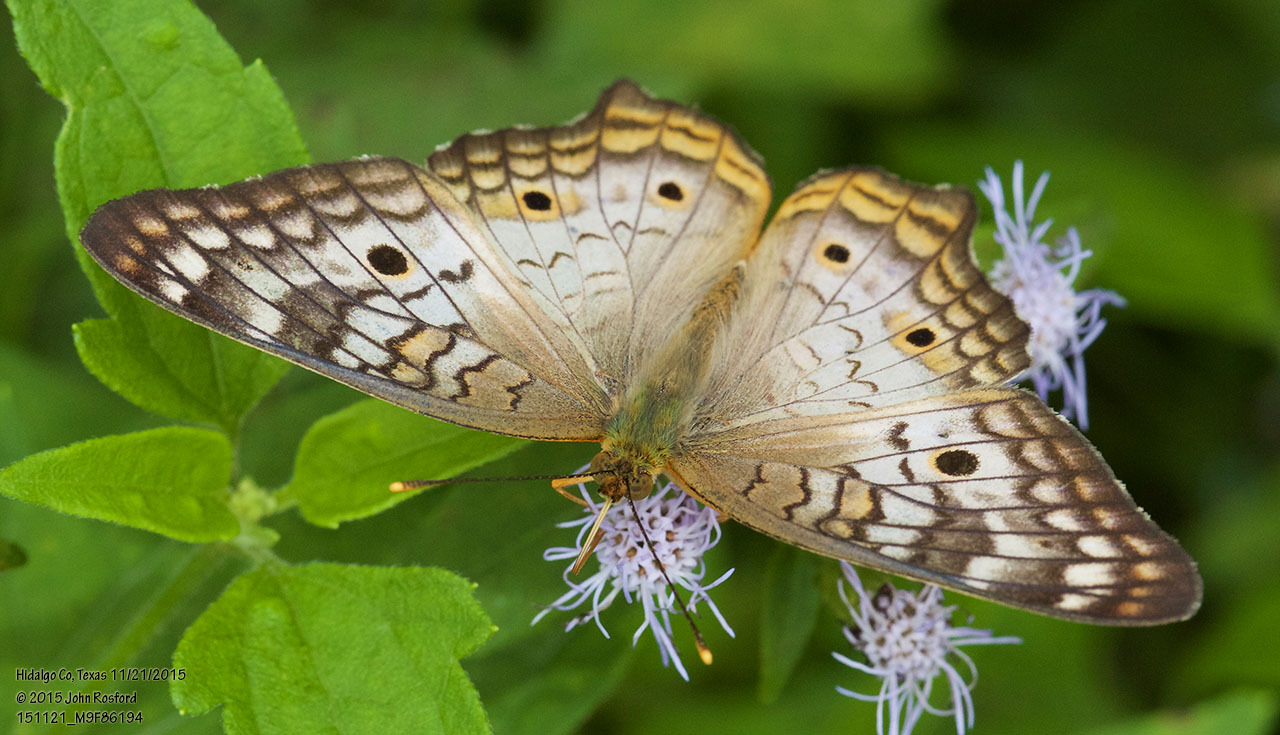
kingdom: Animalia
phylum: Arthropoda
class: Insecta
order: Lepidoptera
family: Nymphalidae
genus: Anartia
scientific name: Anartia jatrophae
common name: White peacock
